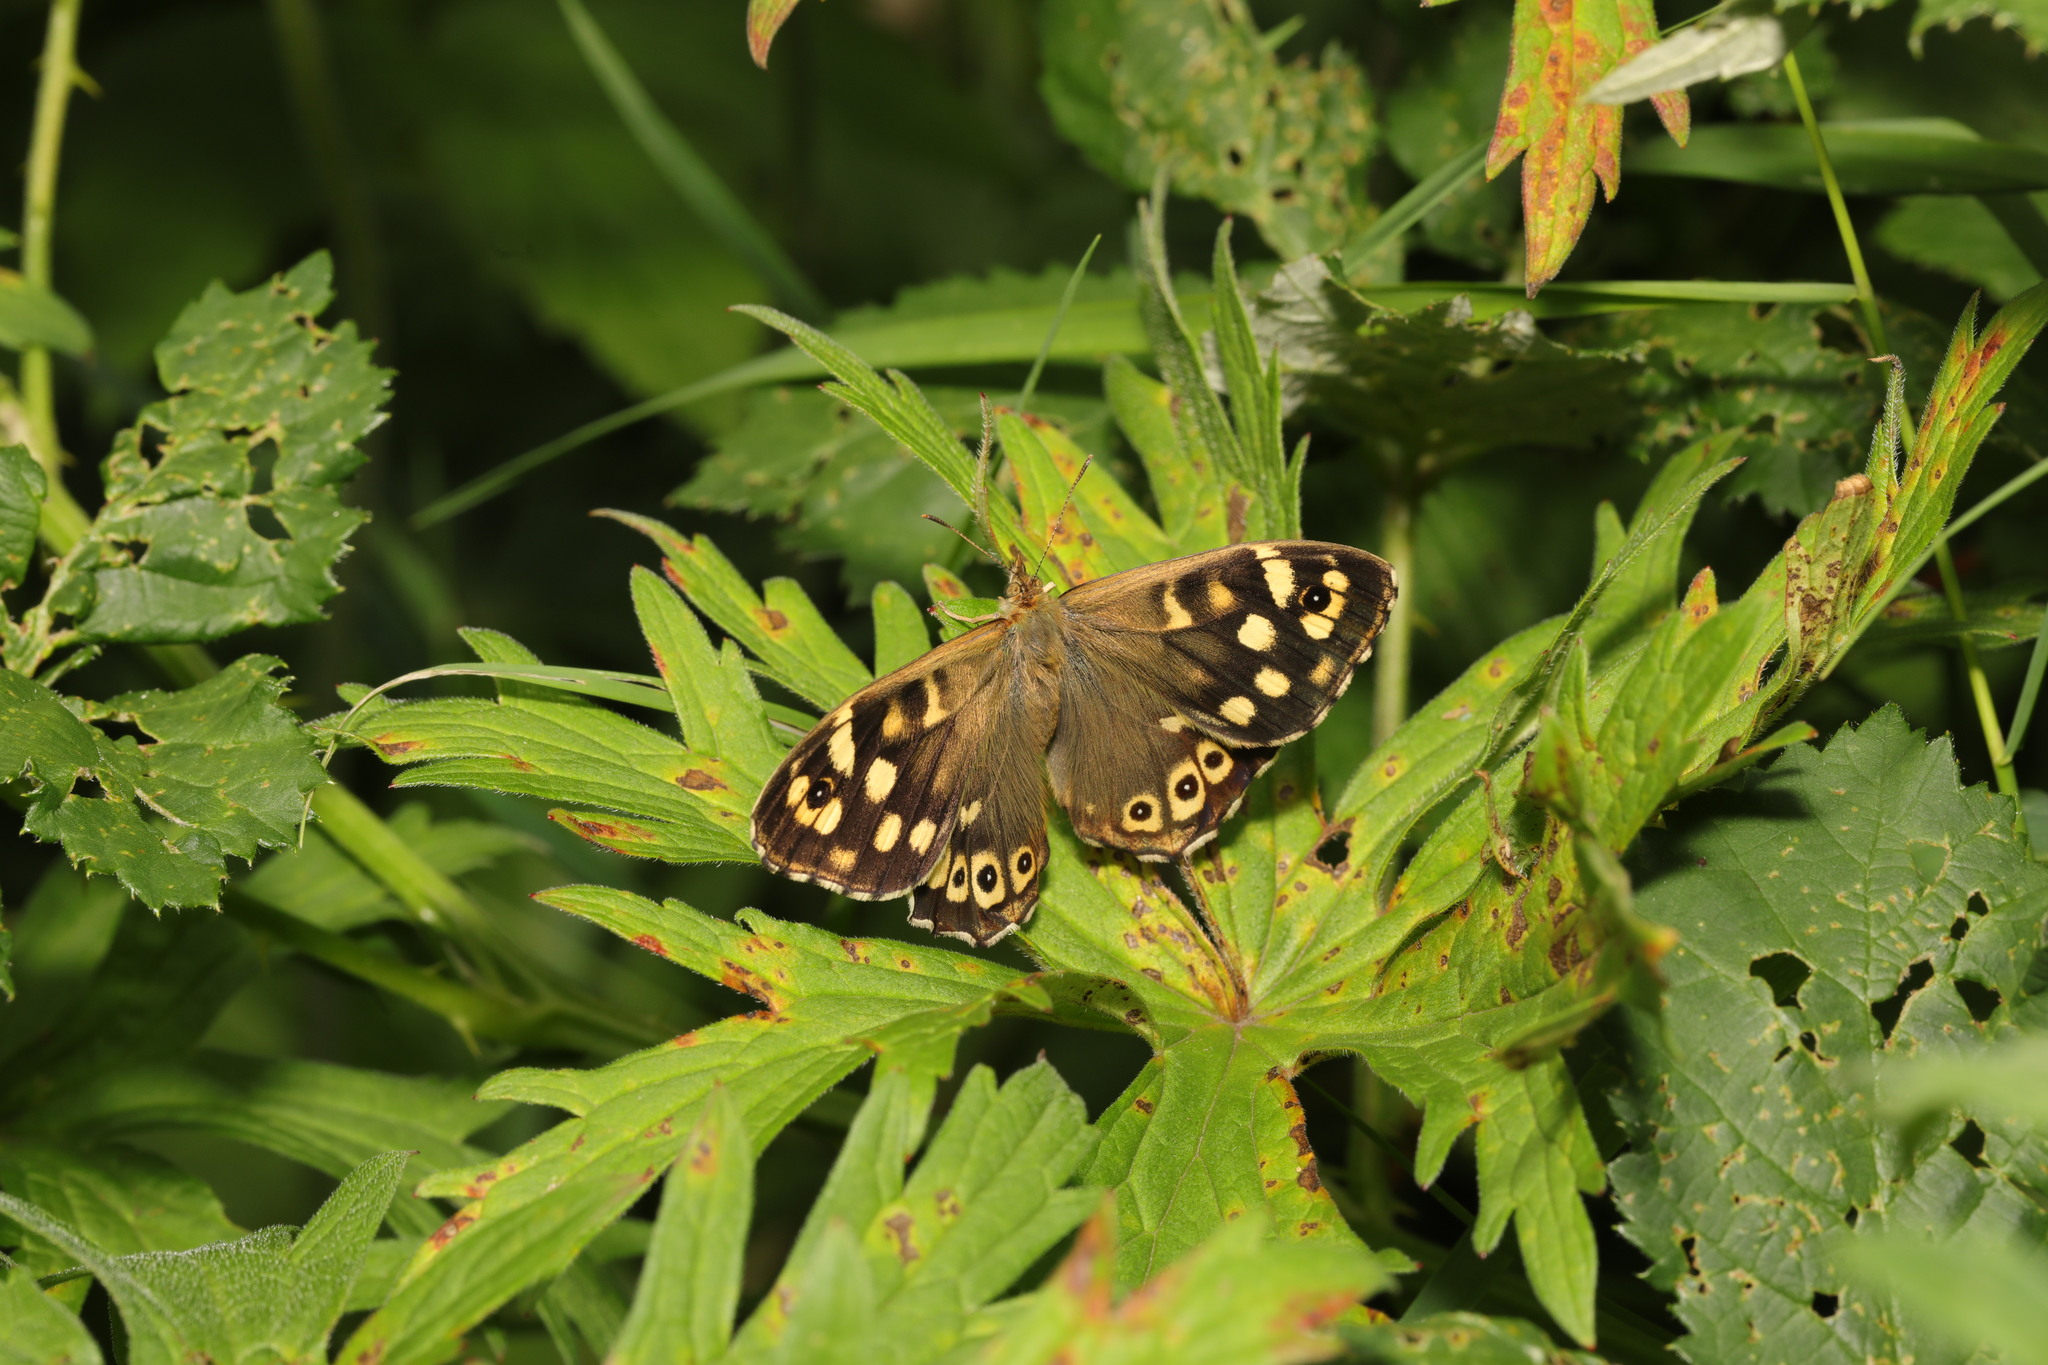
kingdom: Animalia
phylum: Arthropoda
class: Insecta
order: Lepidoptera
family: Nymphalidae
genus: Pararge
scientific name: Pararge aegeria
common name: Speckled wood
